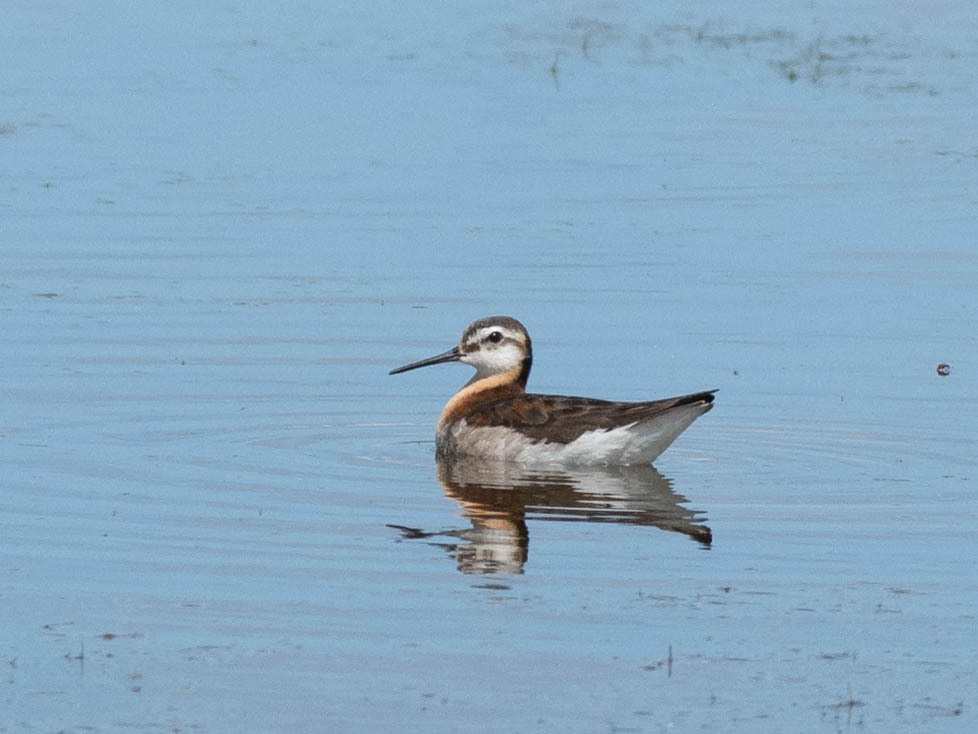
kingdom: Animalia
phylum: Chordata
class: Aves
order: Charadriiformes
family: Scolopacidae
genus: Phalaropus
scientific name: Phalaropus tricolor
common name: Wilson's phalarope
